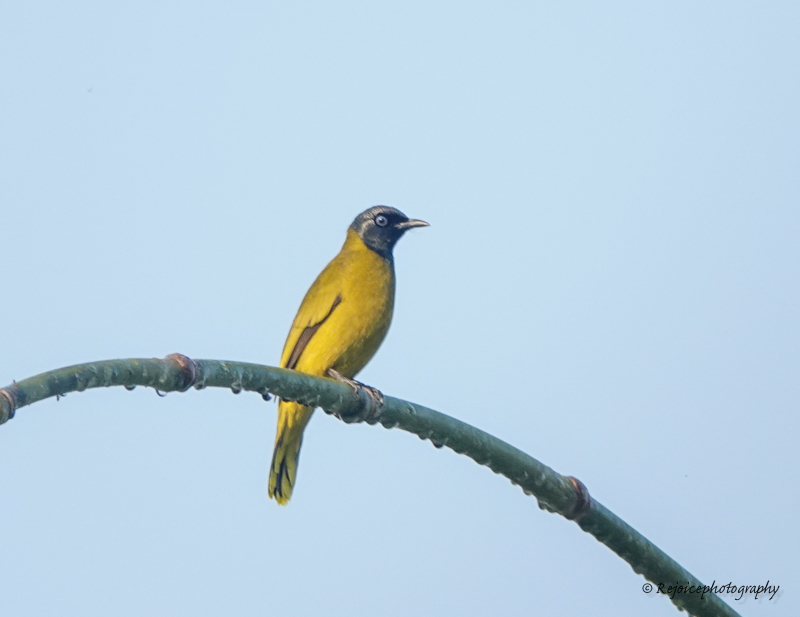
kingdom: Animalia
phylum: Chordata
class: Aves
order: Passeriformes
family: Pycnonotidae
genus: Microtarsus
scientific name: Microtarsus
